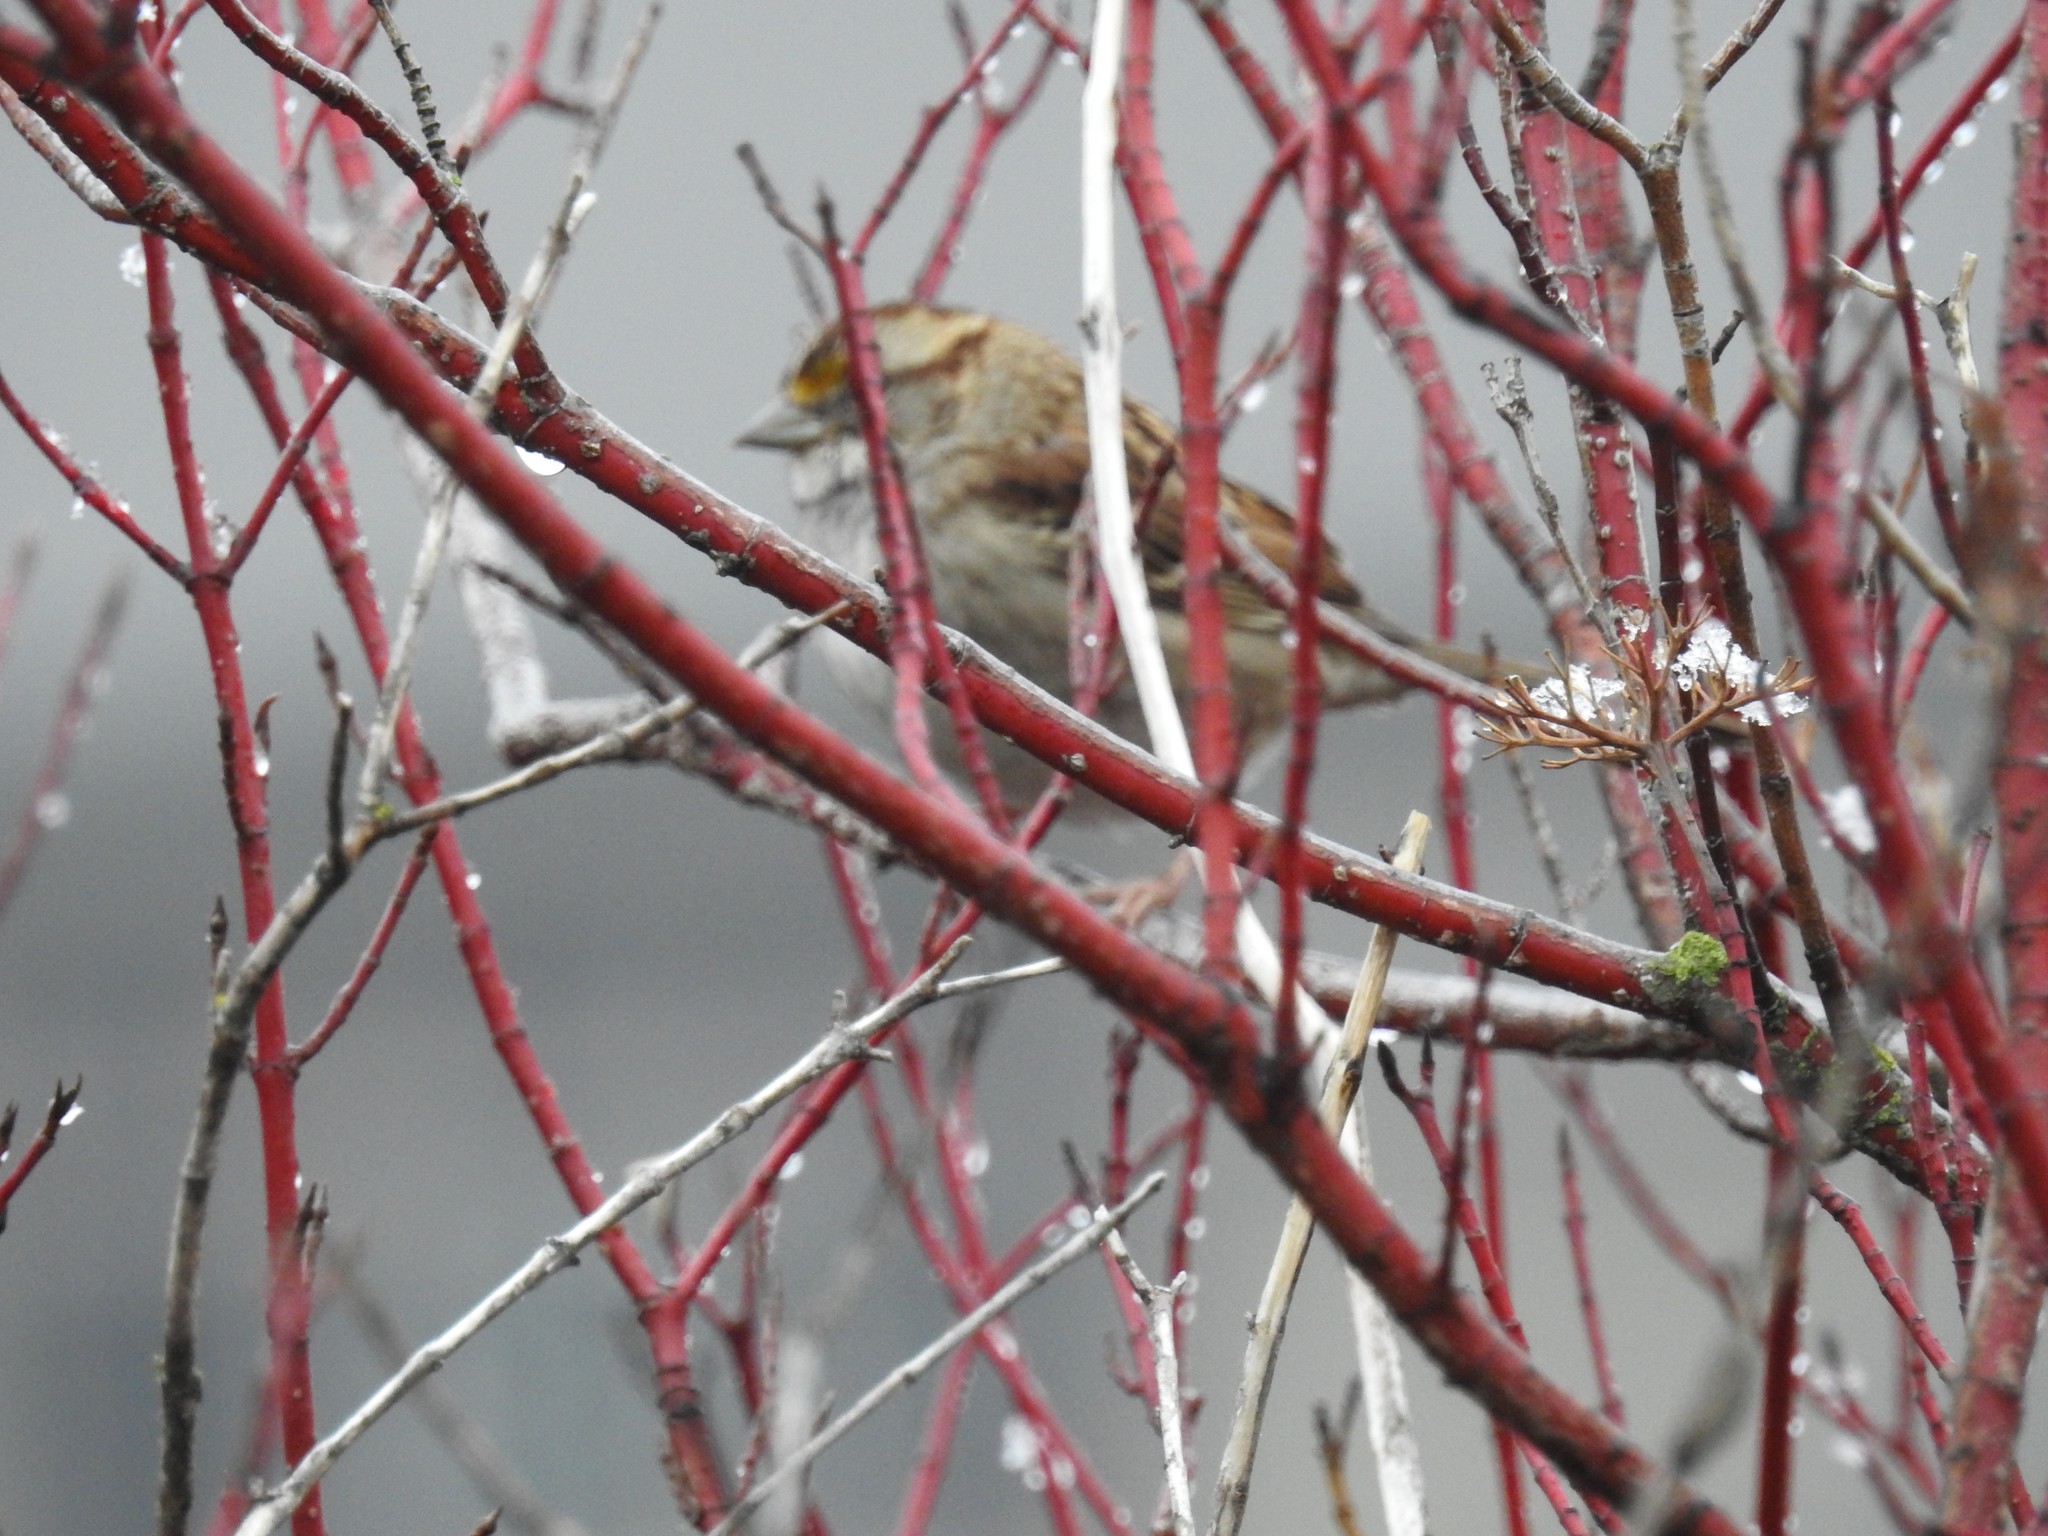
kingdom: Animalia
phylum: Chordata
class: Aves
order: Passeriformes
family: Passerellidae
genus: Zonotrichia
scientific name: Zonotrichia albicollis
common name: White-throated sparrow
